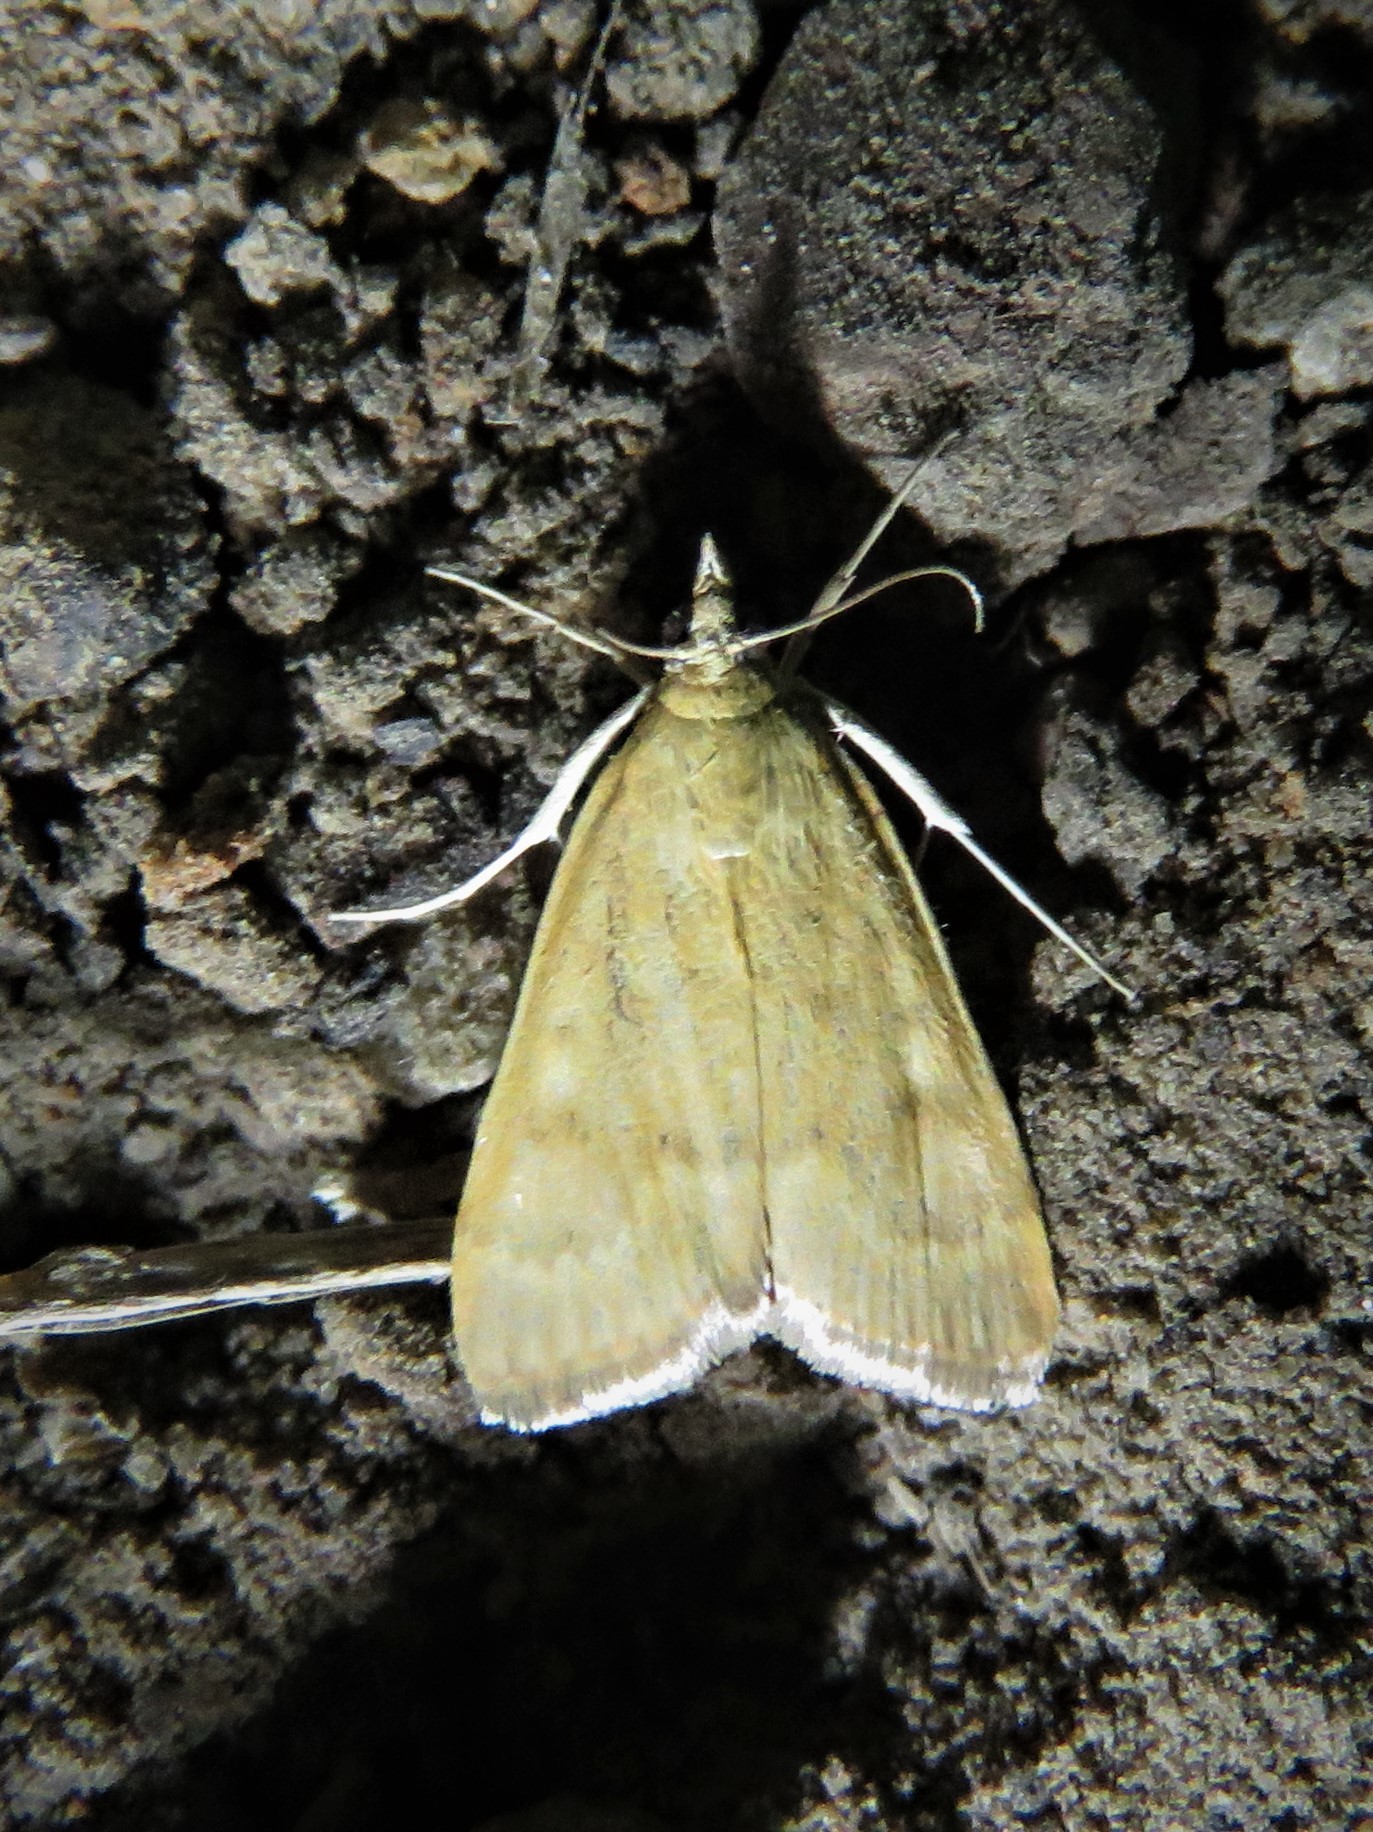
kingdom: Animalia
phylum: Arthropoda
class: Insecta
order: Lepidoptera
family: Crambidae
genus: Achyra
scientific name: Achyra rantalis
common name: Garden webworm
